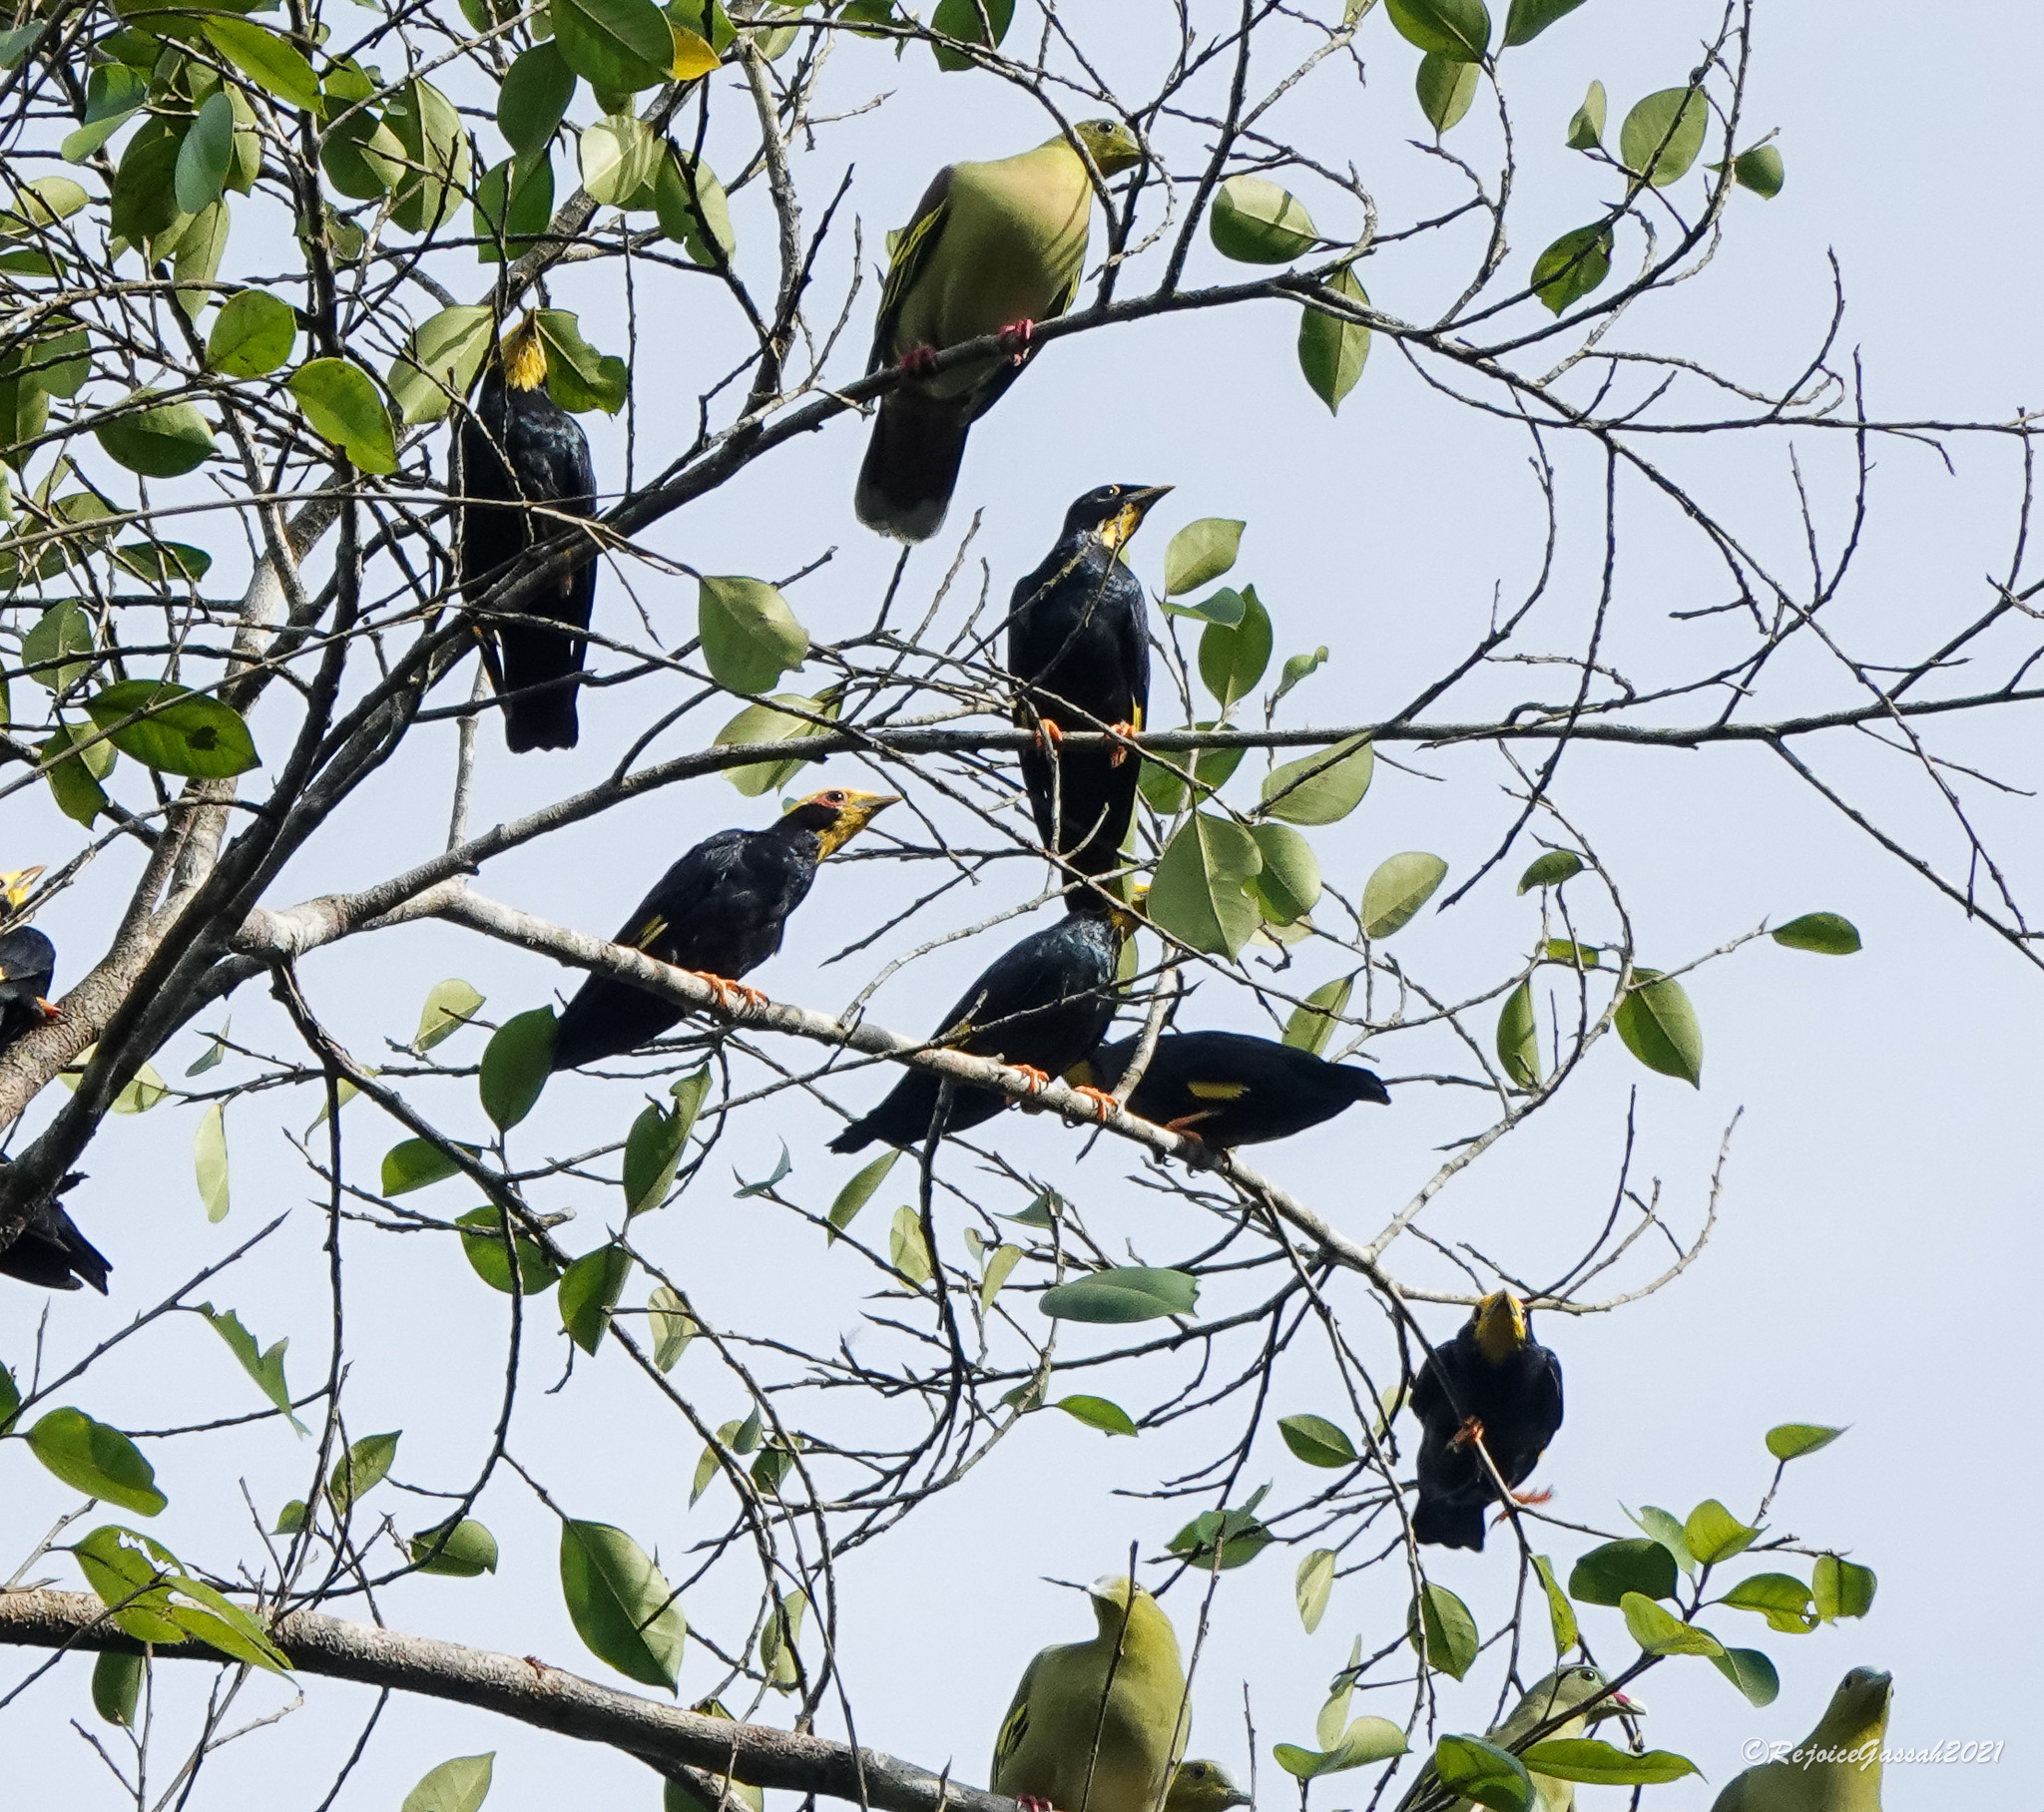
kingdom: Animalia
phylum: Chordata
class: Aves
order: Passeriformes
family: Sturnidae
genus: Ampeliceps
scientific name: Ampeliceps coronatus
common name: Golden-crested myna
